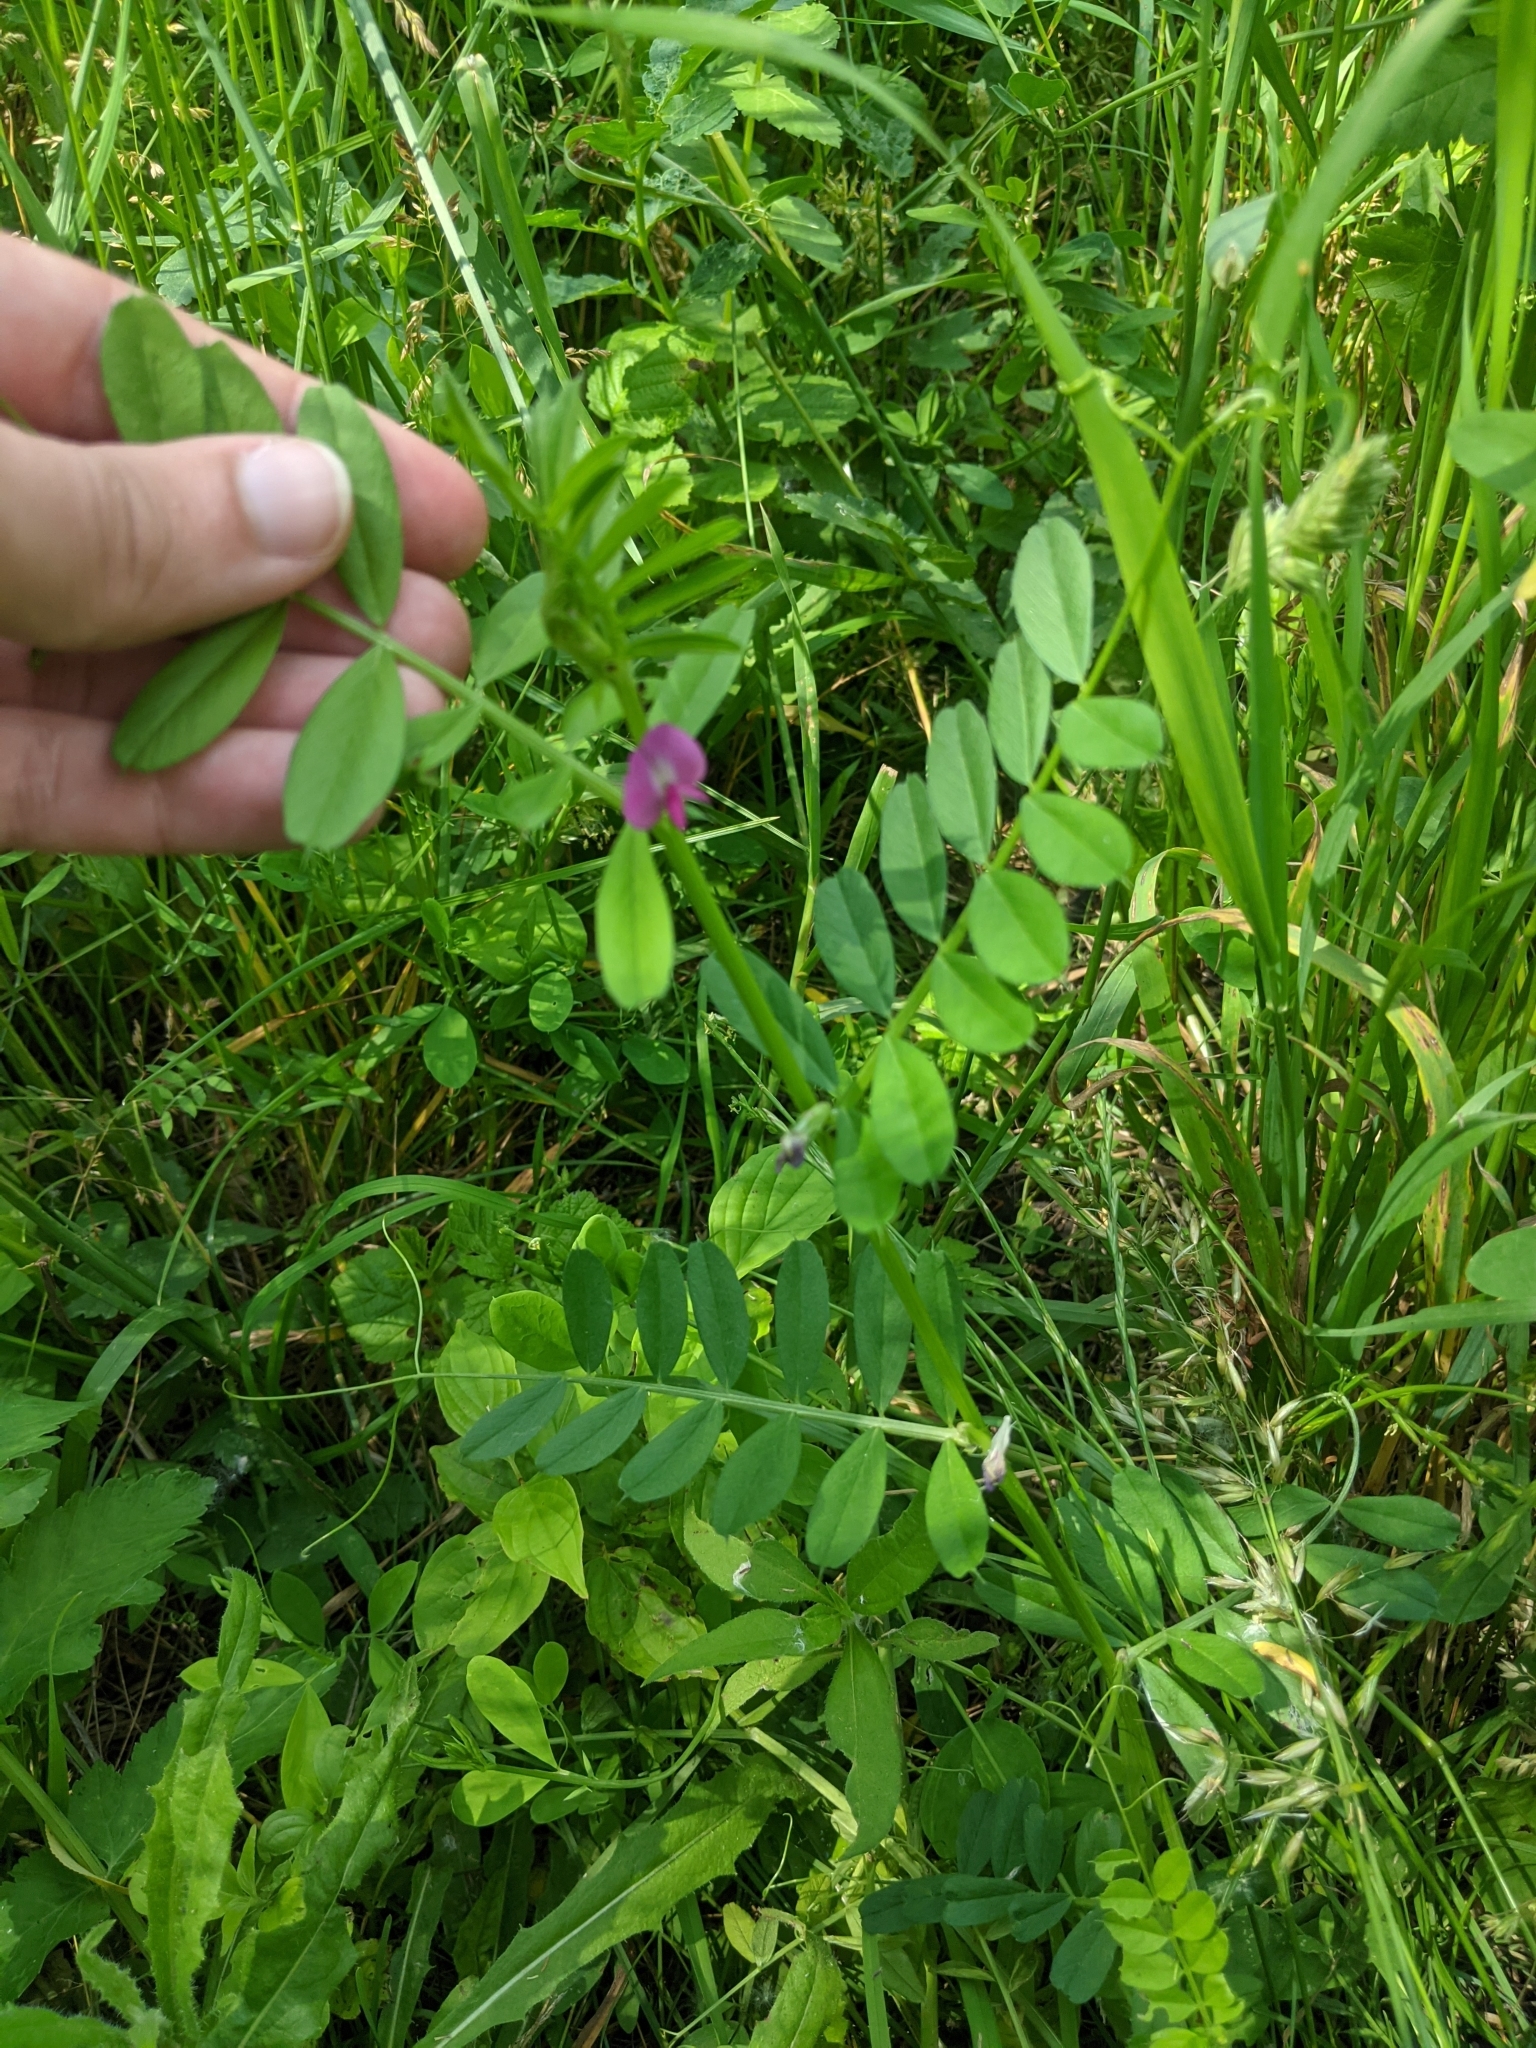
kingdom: Plantae
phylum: Tracheophyta
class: Magnoliopsida
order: Fabales
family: Fabaceae
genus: Vicia
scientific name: Vicia sativa
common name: Garden vetch
